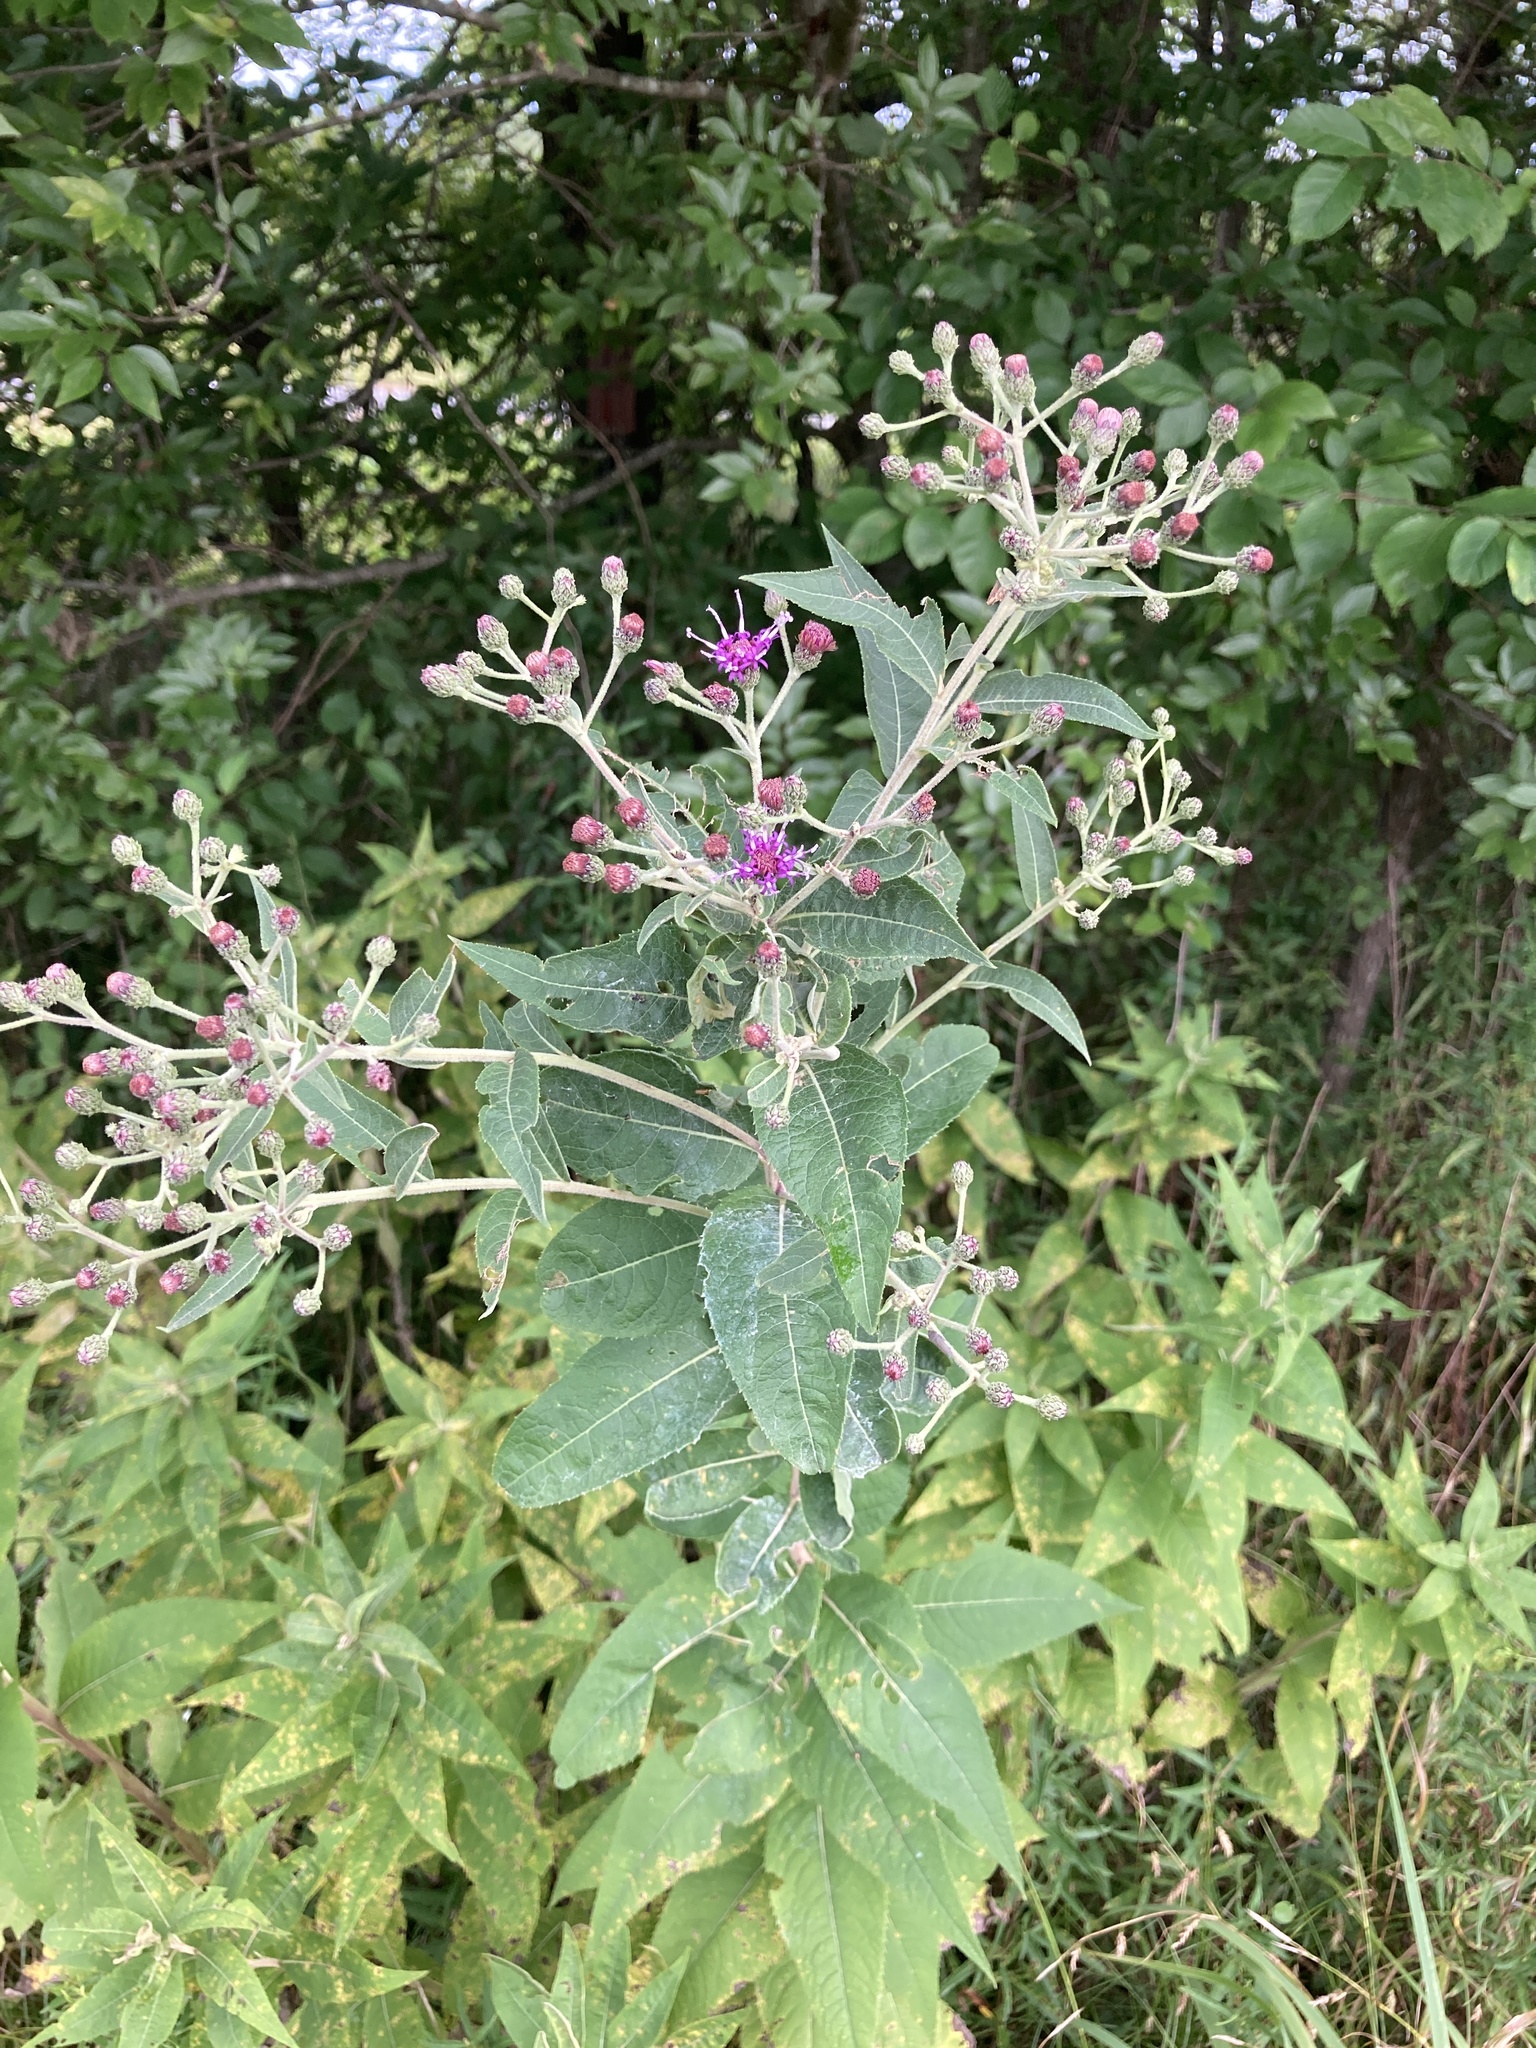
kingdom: Plantae
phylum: Tracheophyta
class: Magnoliopsida
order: Asterales
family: Asteraceae
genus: Vernonia
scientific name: Vernonia missurica
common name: Missouri ironweed
